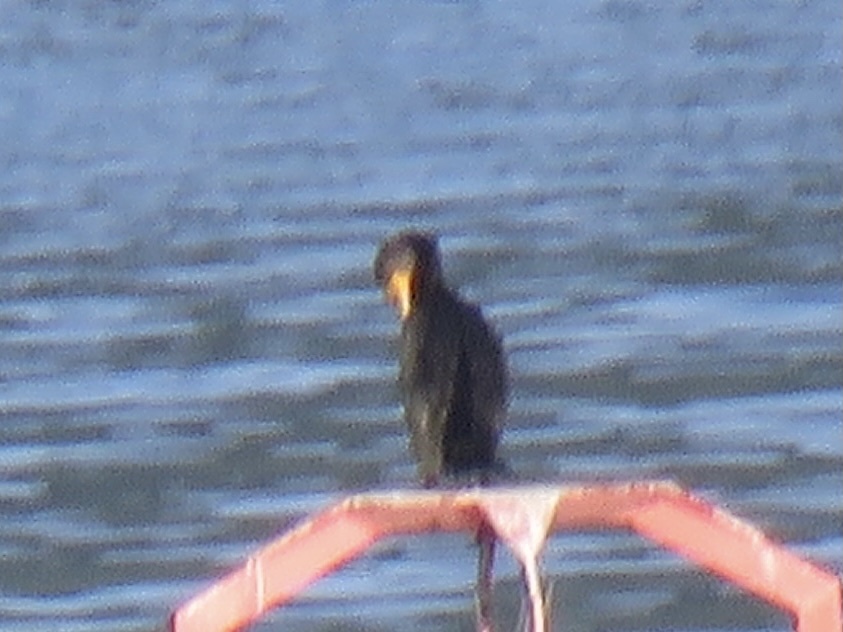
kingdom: Animalia
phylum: Chordata
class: Aves
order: Suliformes
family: Phalacrocoracidae
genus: Phalacrocorax
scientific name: Phalacrocorax auritus
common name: Double-crested cormorant
